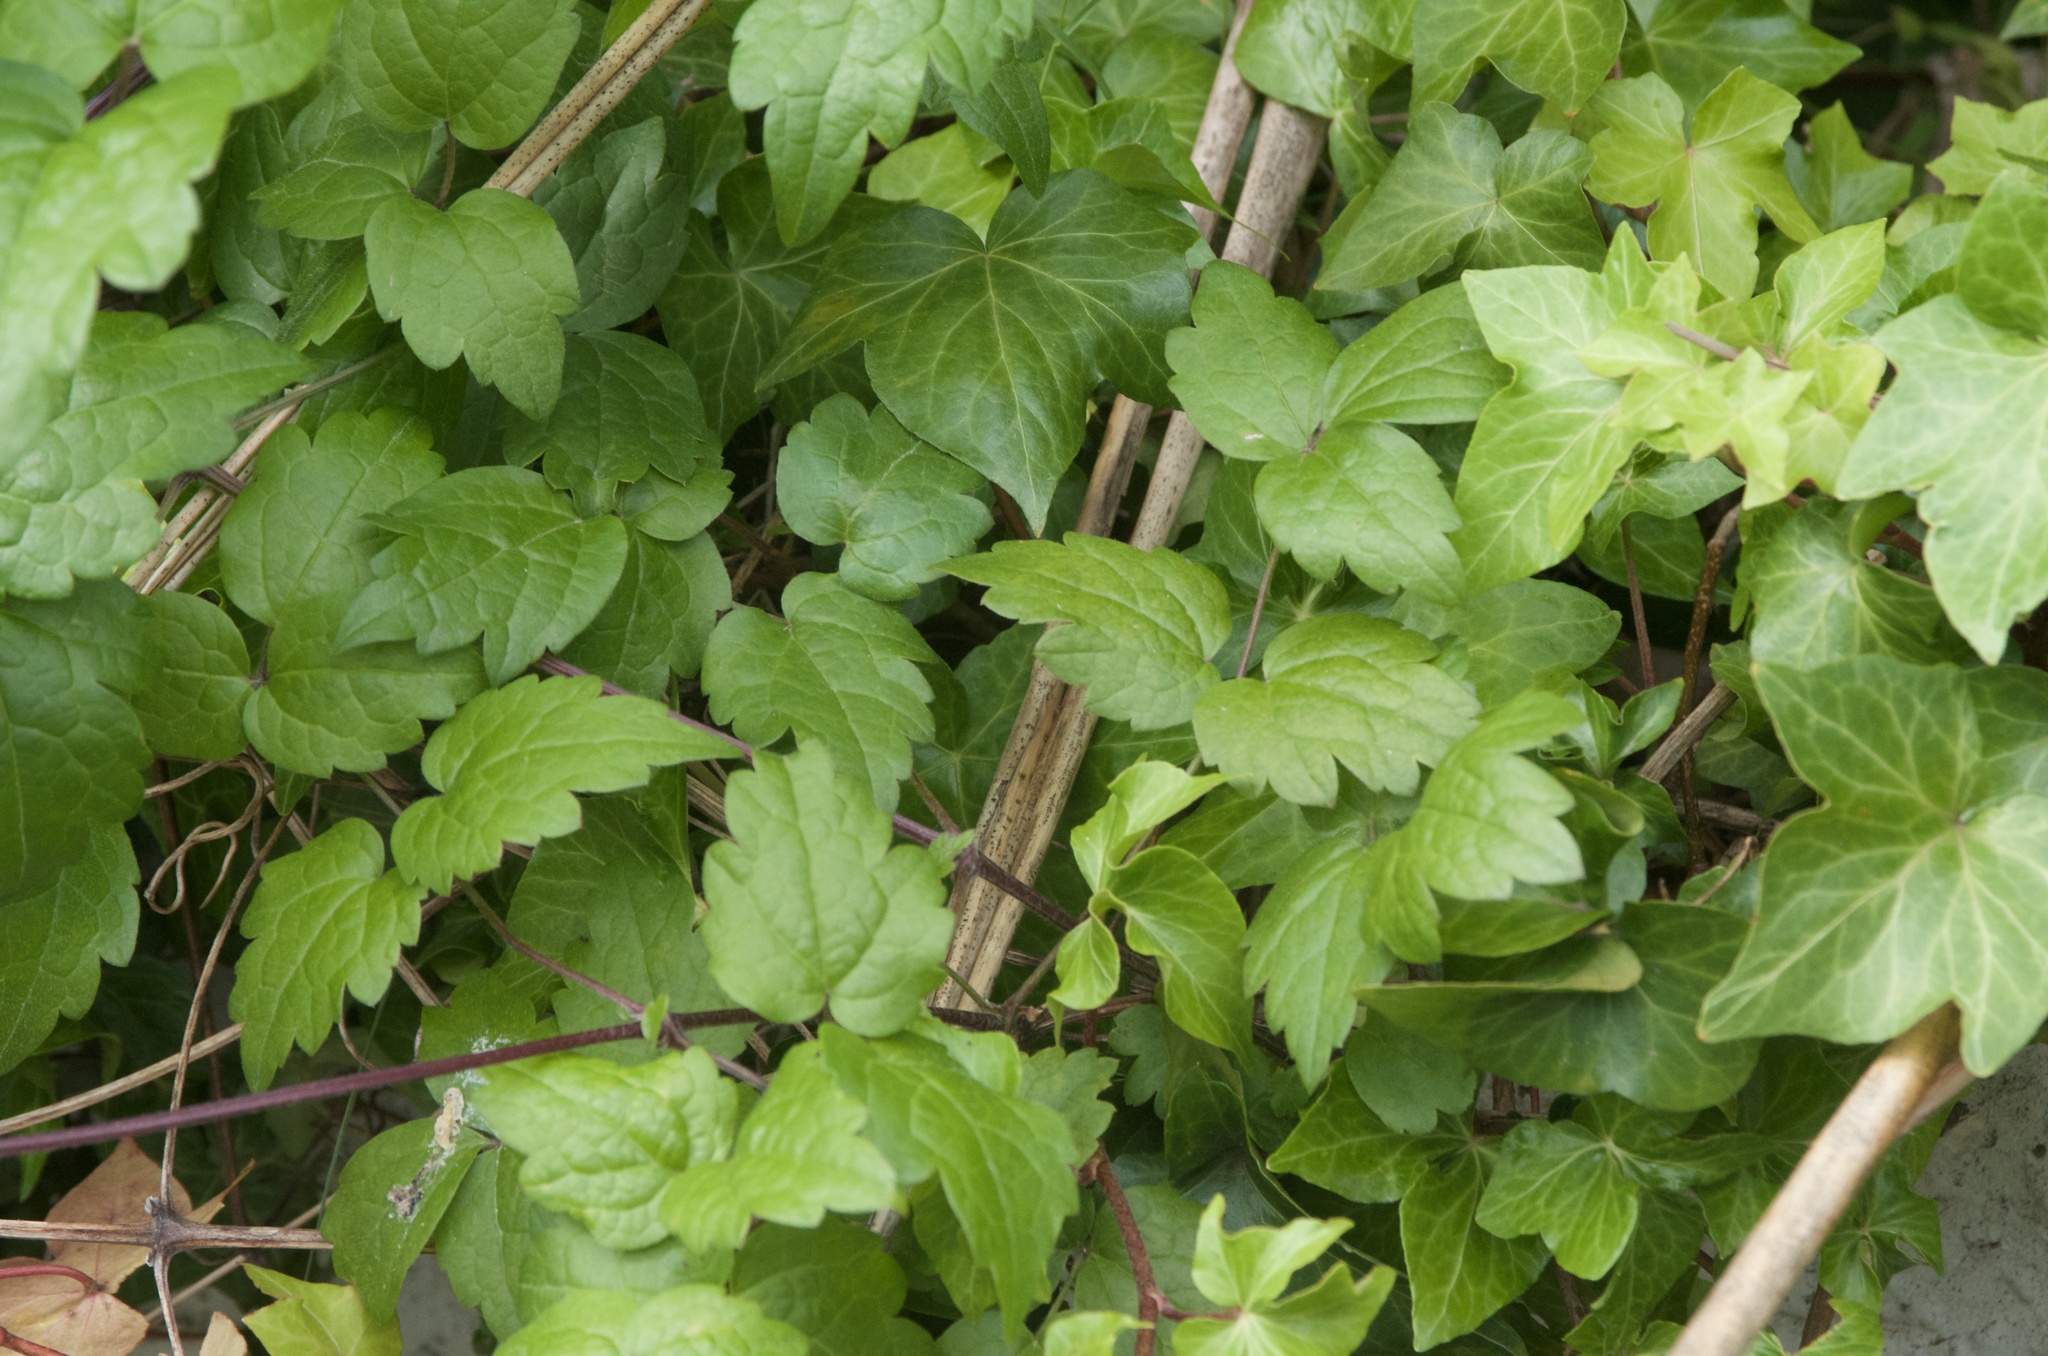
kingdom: Plantae
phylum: Tracheophyta
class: Magnoliopsida
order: Ranunculales
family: Ranunculaceae
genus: Clematis
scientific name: Clematis vitalba
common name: Evergreen clematis
